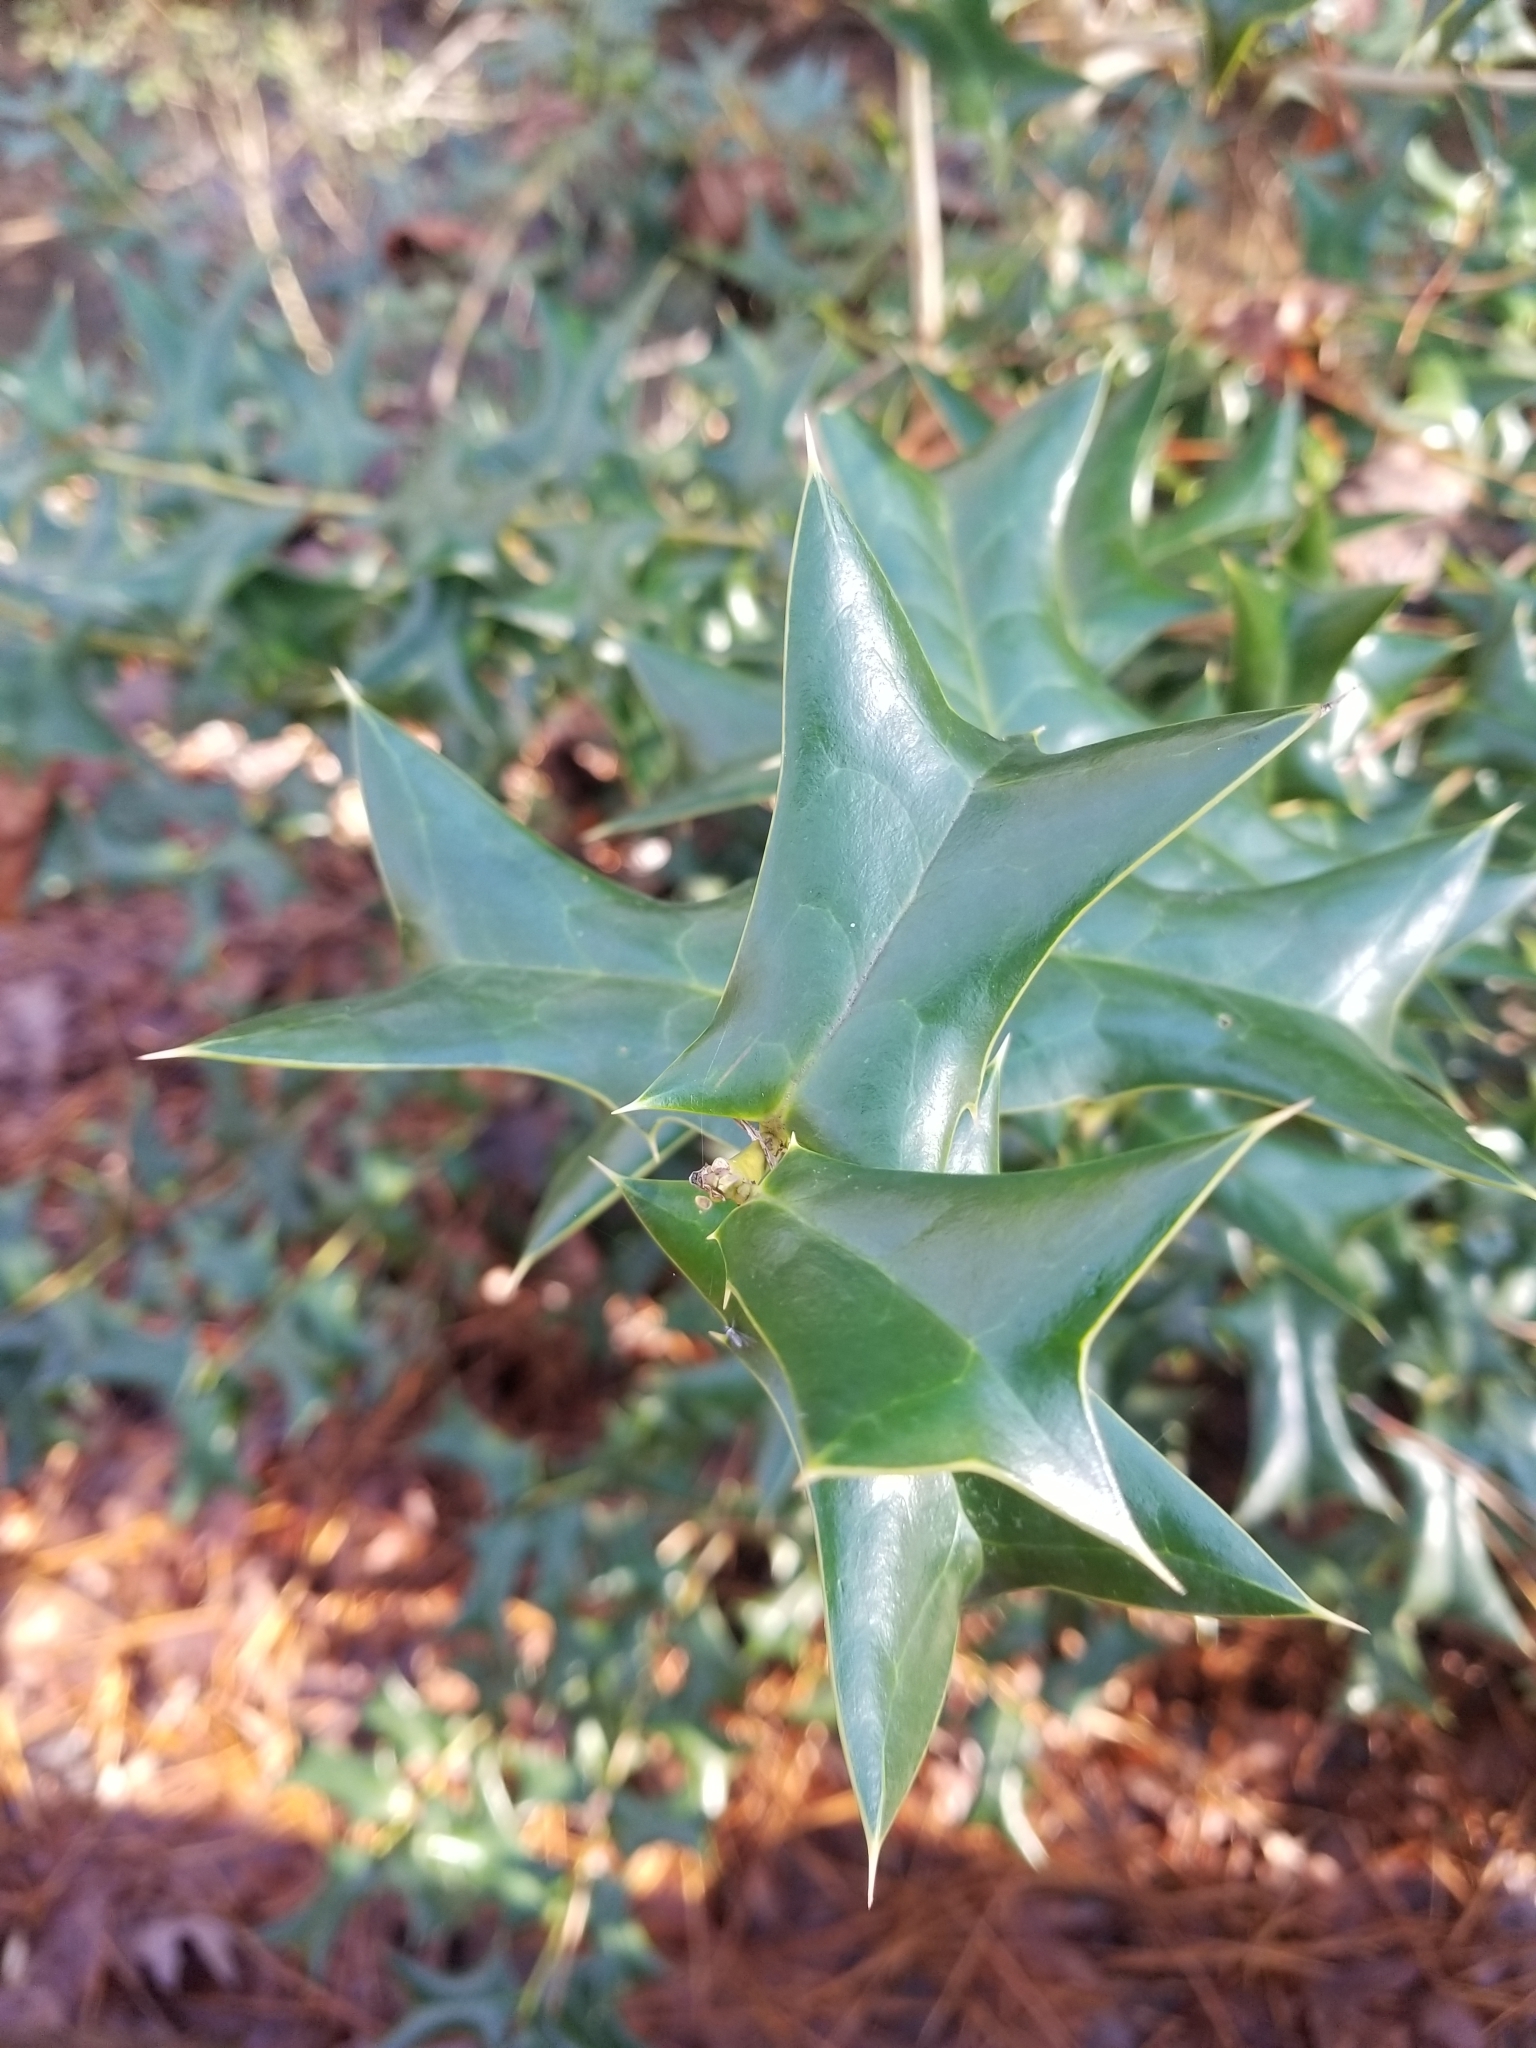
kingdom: Plantae
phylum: Tracheophyta
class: Magnoliopsida
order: Aquifoliales
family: Aquifoliaceae
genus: Ilex
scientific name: Ilex cornuta
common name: Chinese holly
